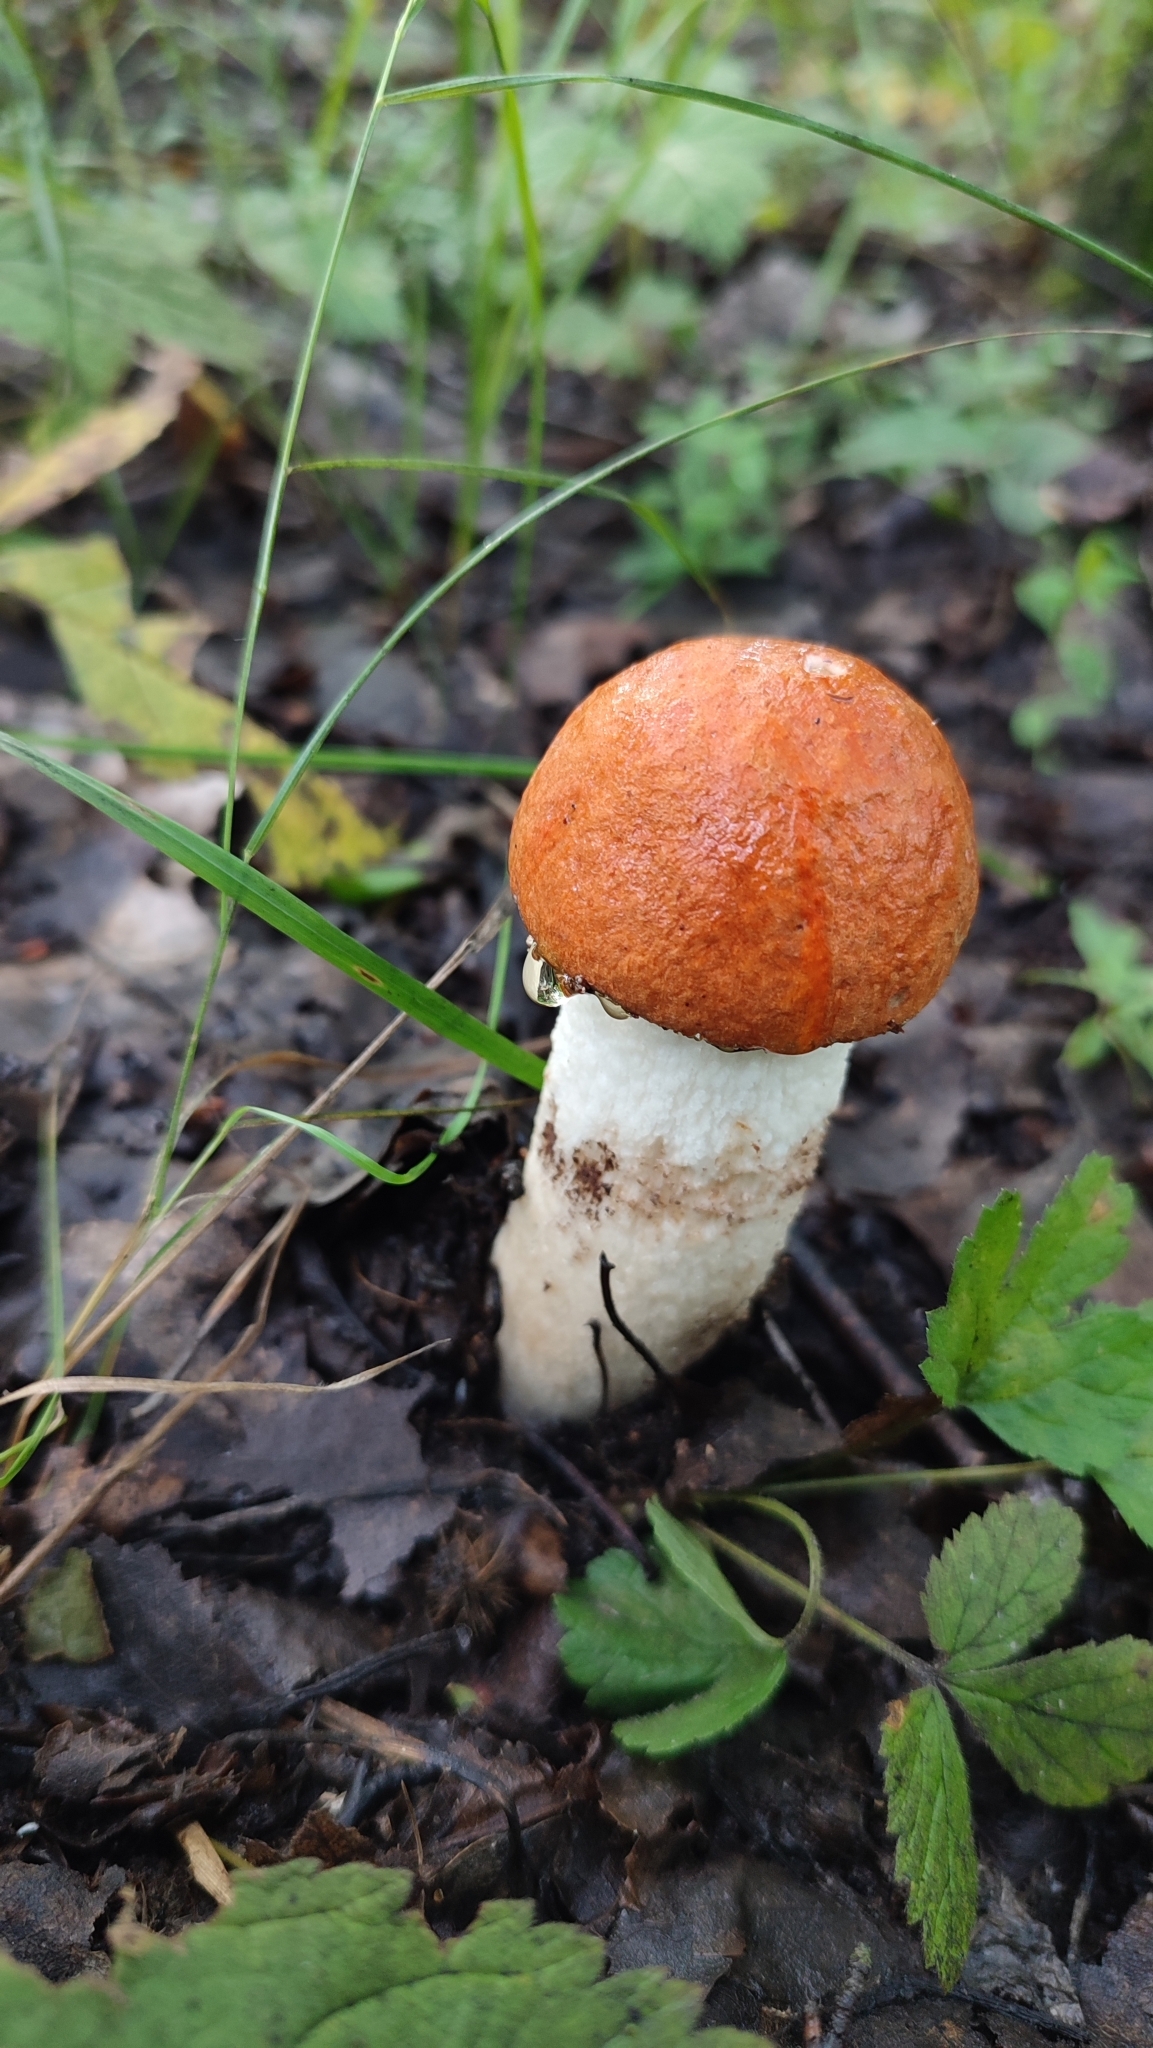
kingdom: Fungi
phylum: Basidiomycota
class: Agaricomycetes
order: Boletales
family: Boletaceae
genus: Leccinum
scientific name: Leccinum albostipitatum
